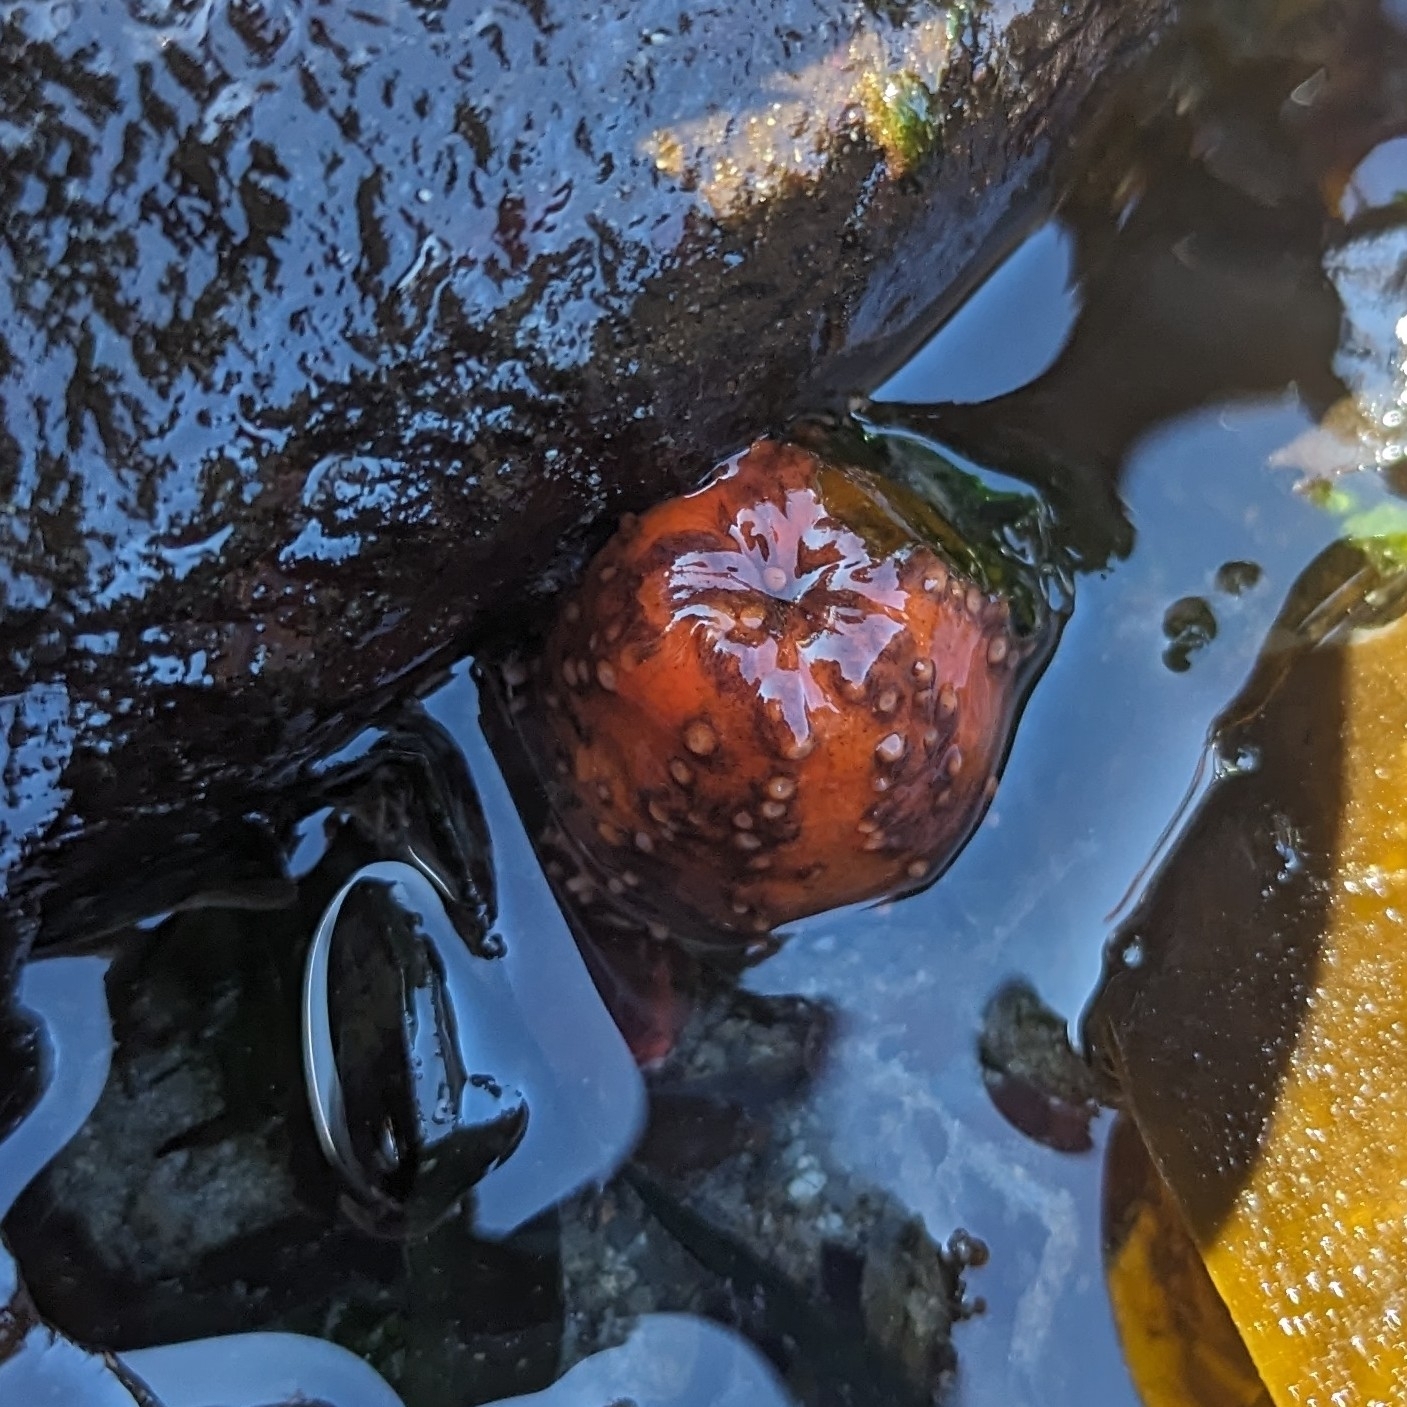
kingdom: Animalia
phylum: Echinodermata
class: Holothuroidea
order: Dendrochirotida
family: Cucumariidae
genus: Cucumaria
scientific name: Cucumaria miniata
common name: Orange sea cucumber
